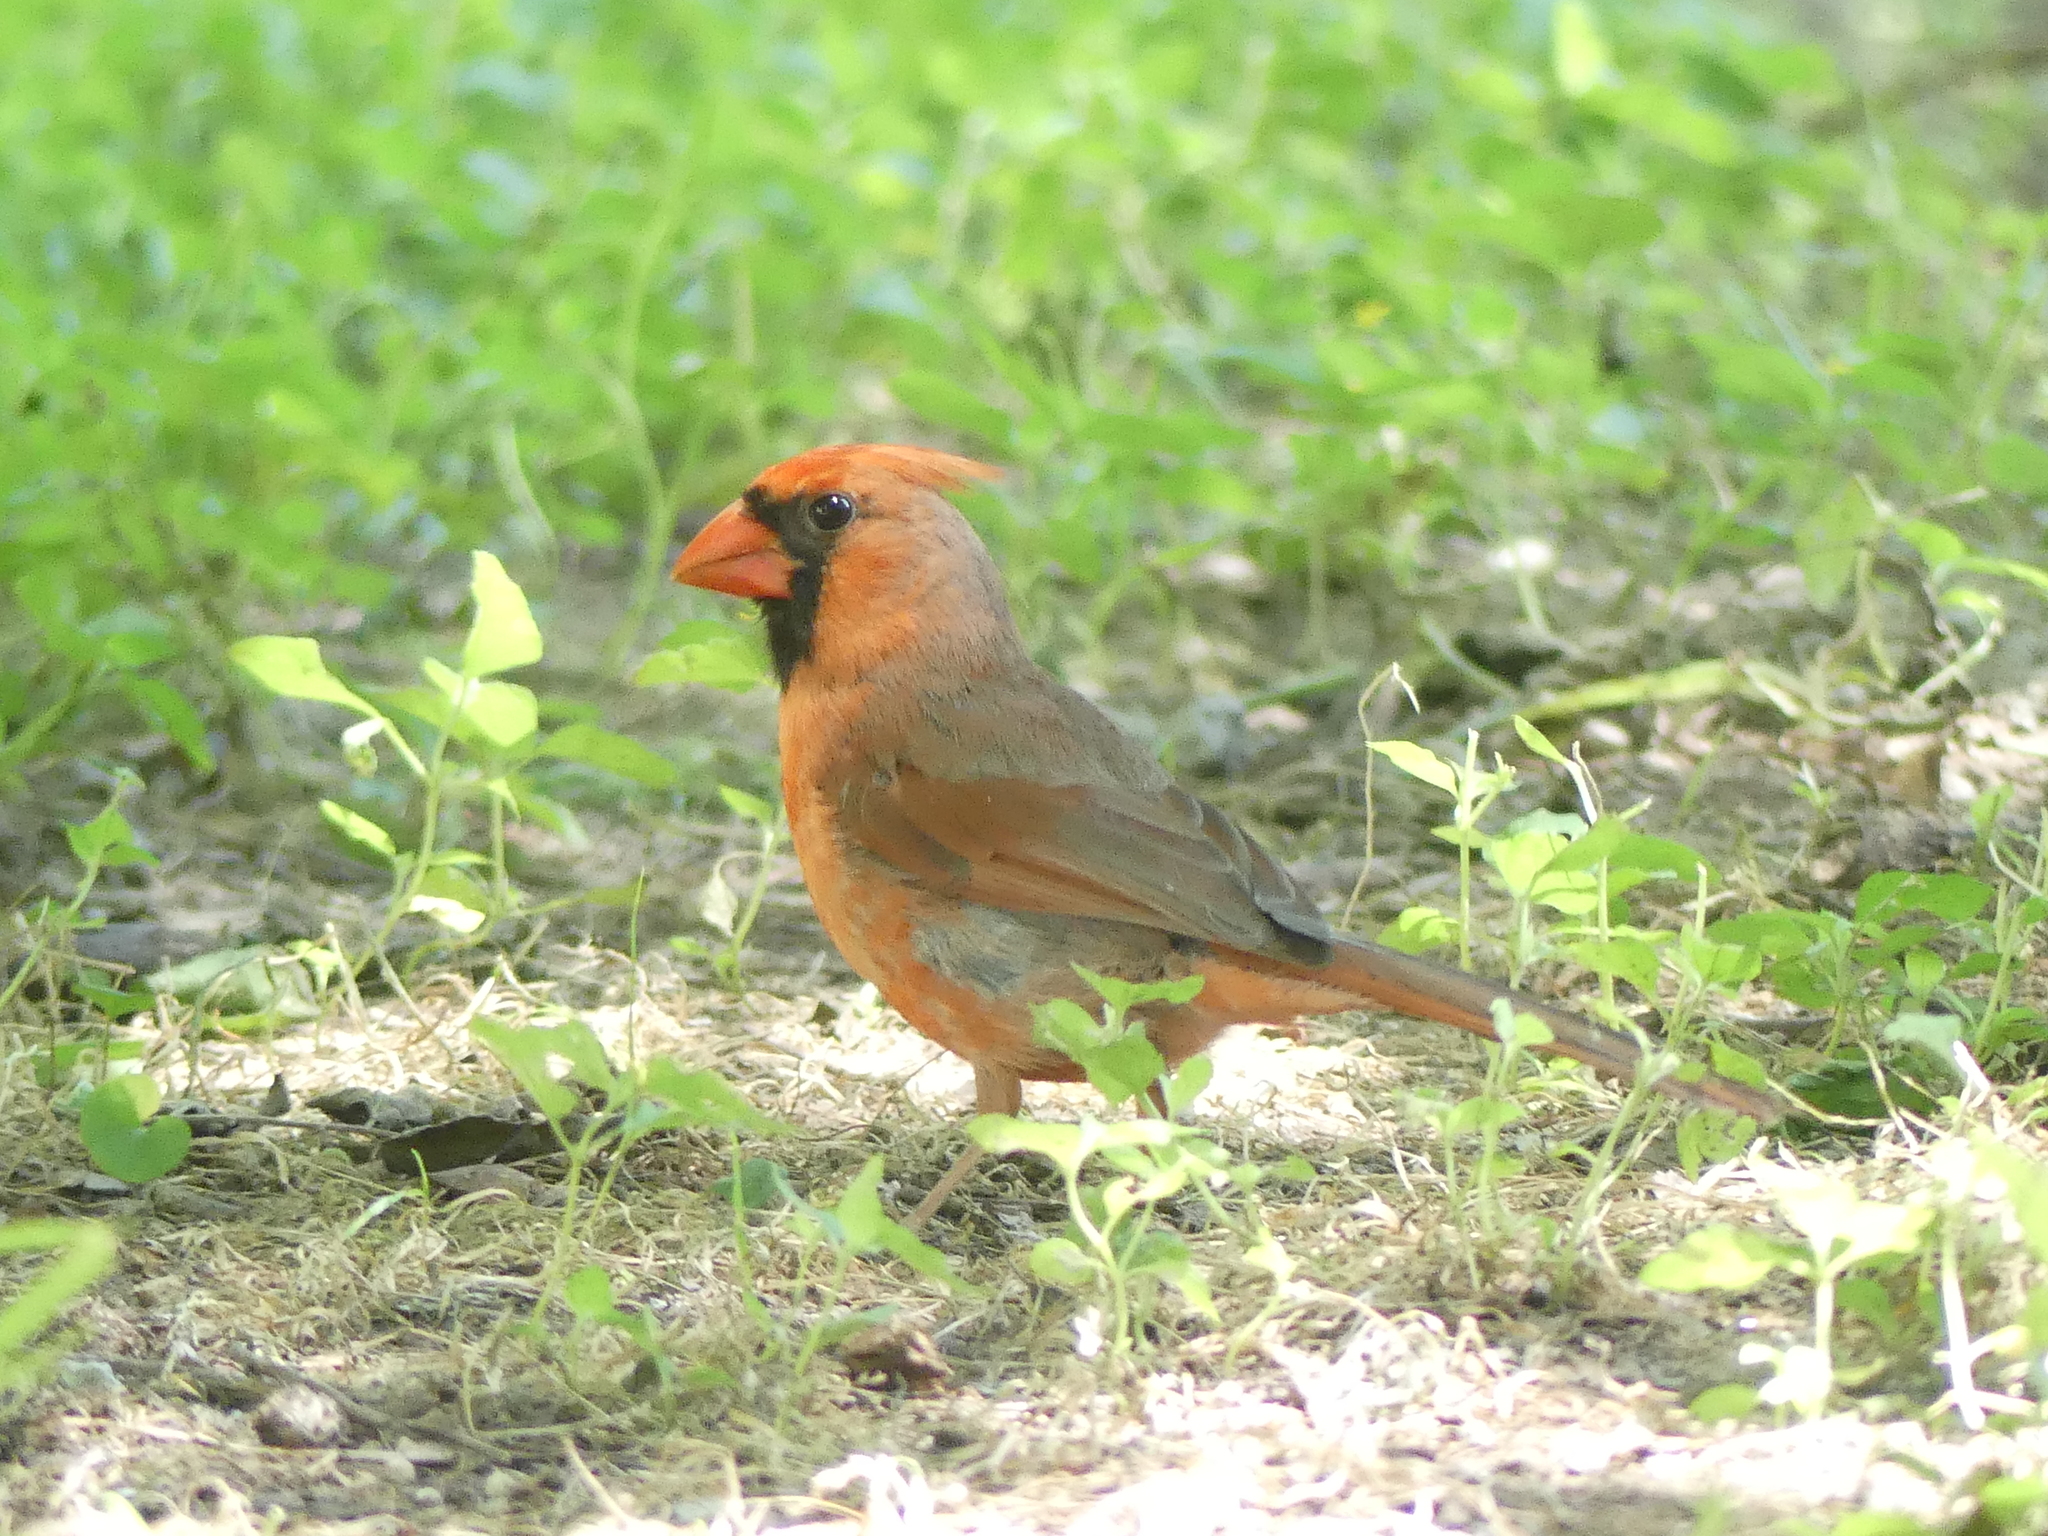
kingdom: Animalia
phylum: Chordata
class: Aves
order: Passeriformes
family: Cardinalidae
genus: Cardinalis
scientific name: Cardinalis cardinalis
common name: Northern cardinal
